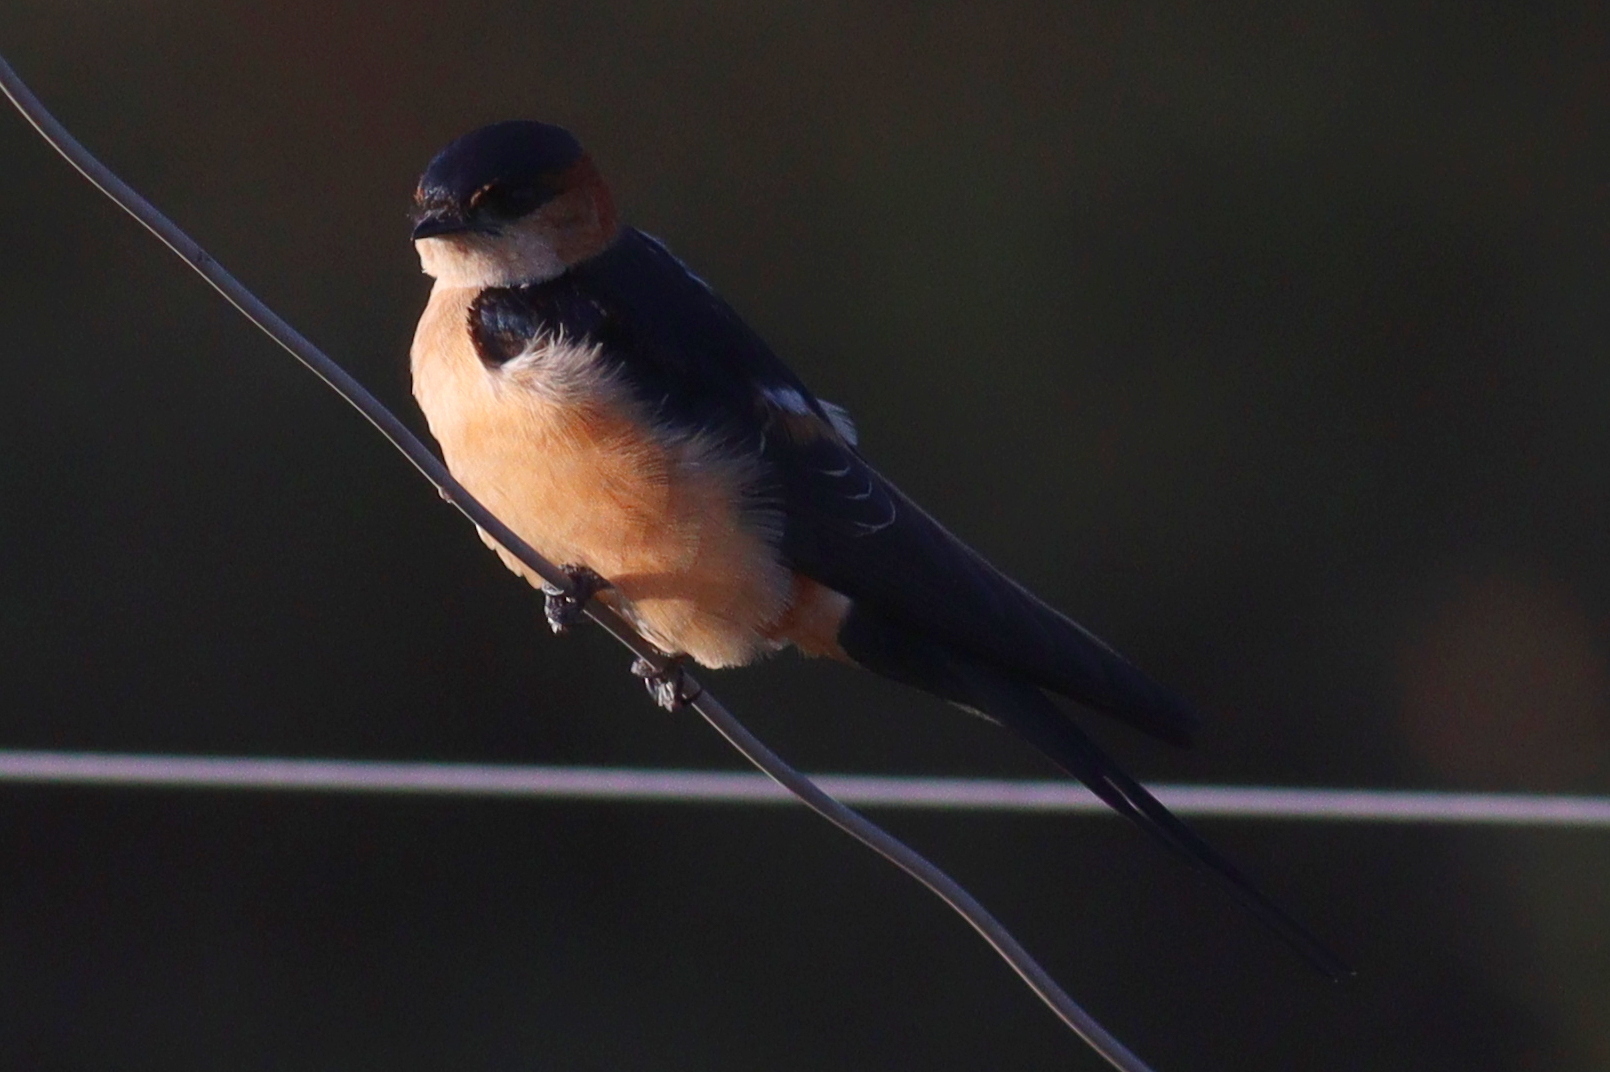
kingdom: Animalia
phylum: Chordata
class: Aves
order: Passeriformes
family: Hirundinidae
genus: Cecropis
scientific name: Cecropis daurica
